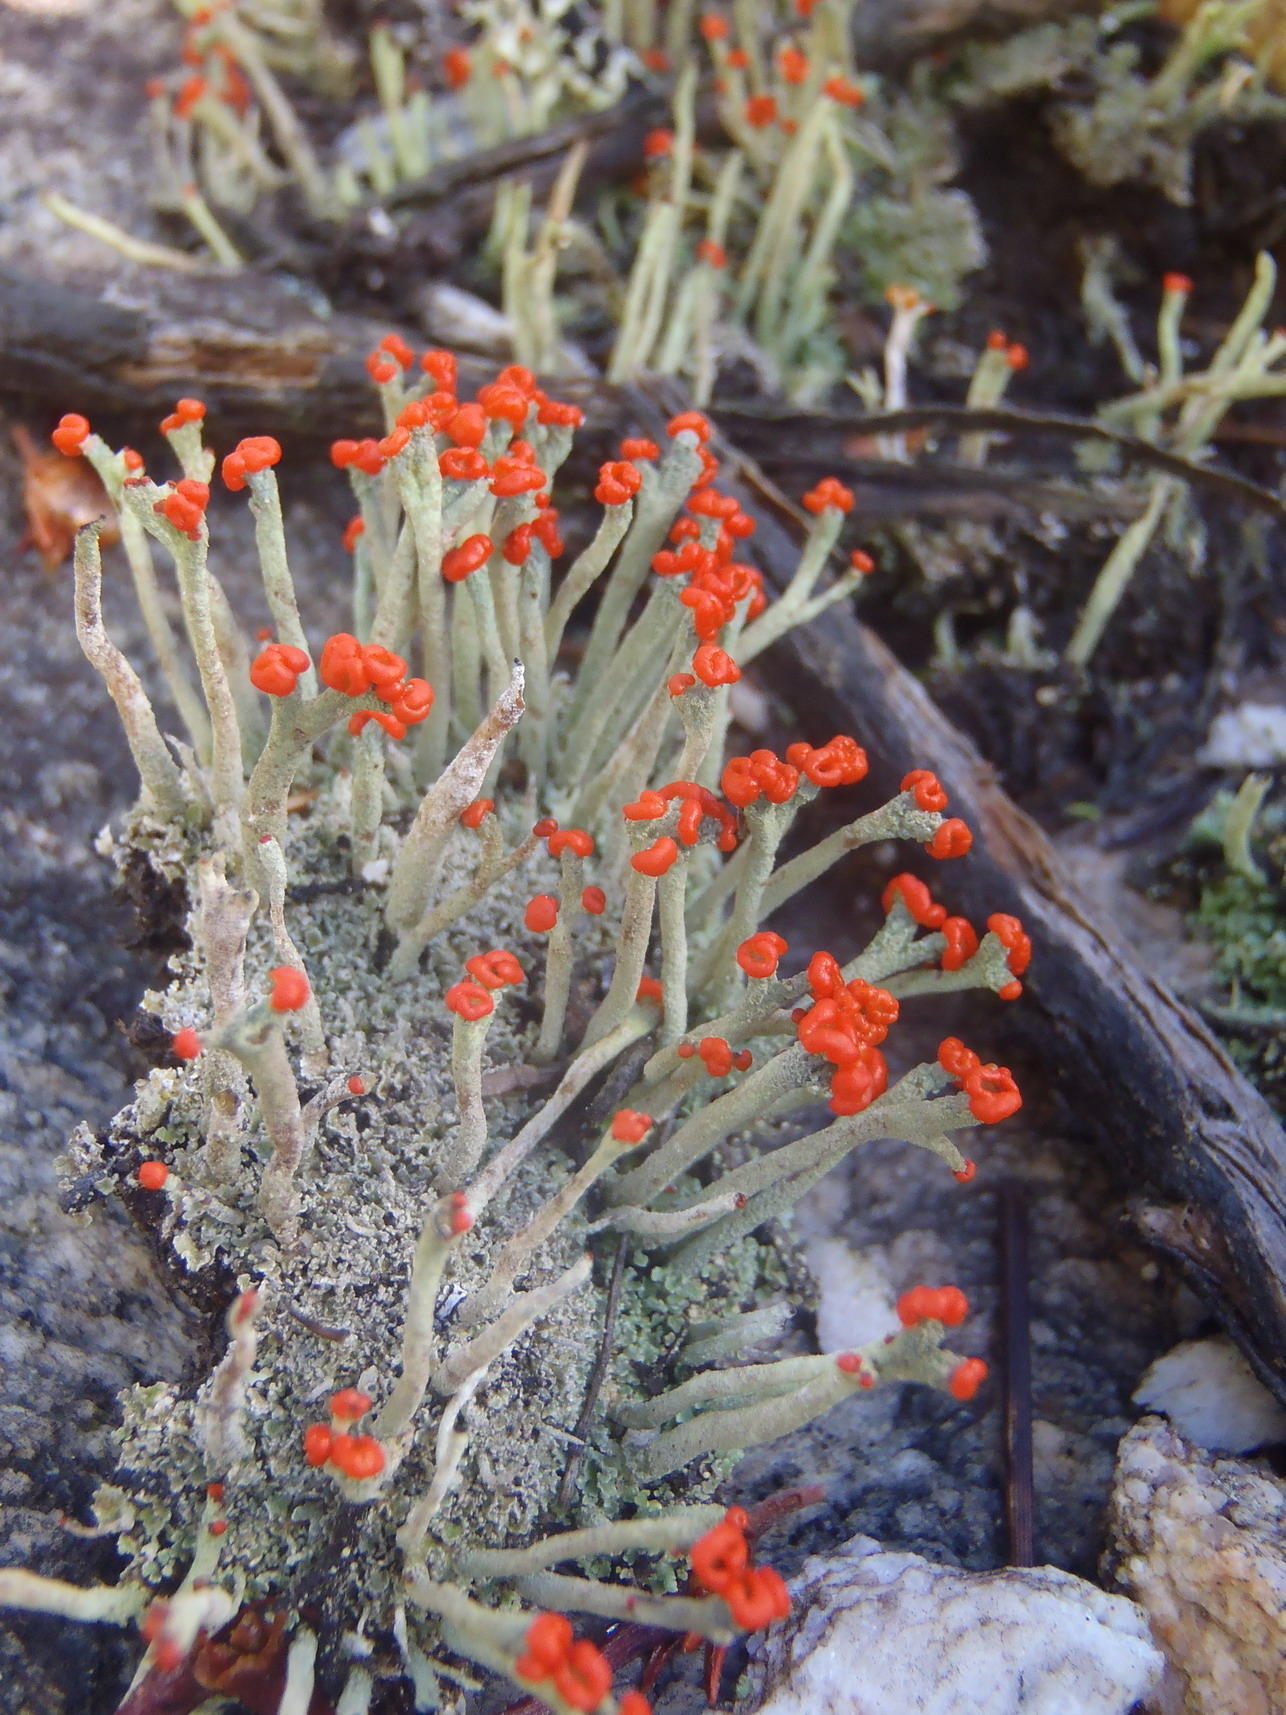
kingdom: Fungi
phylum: Ascomycota
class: Lecanoromycetes
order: Lecanorales
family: Cladoniaceae
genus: Cladonia
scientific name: Cladonia floerkeana
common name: Gritty british soldiers lichen
